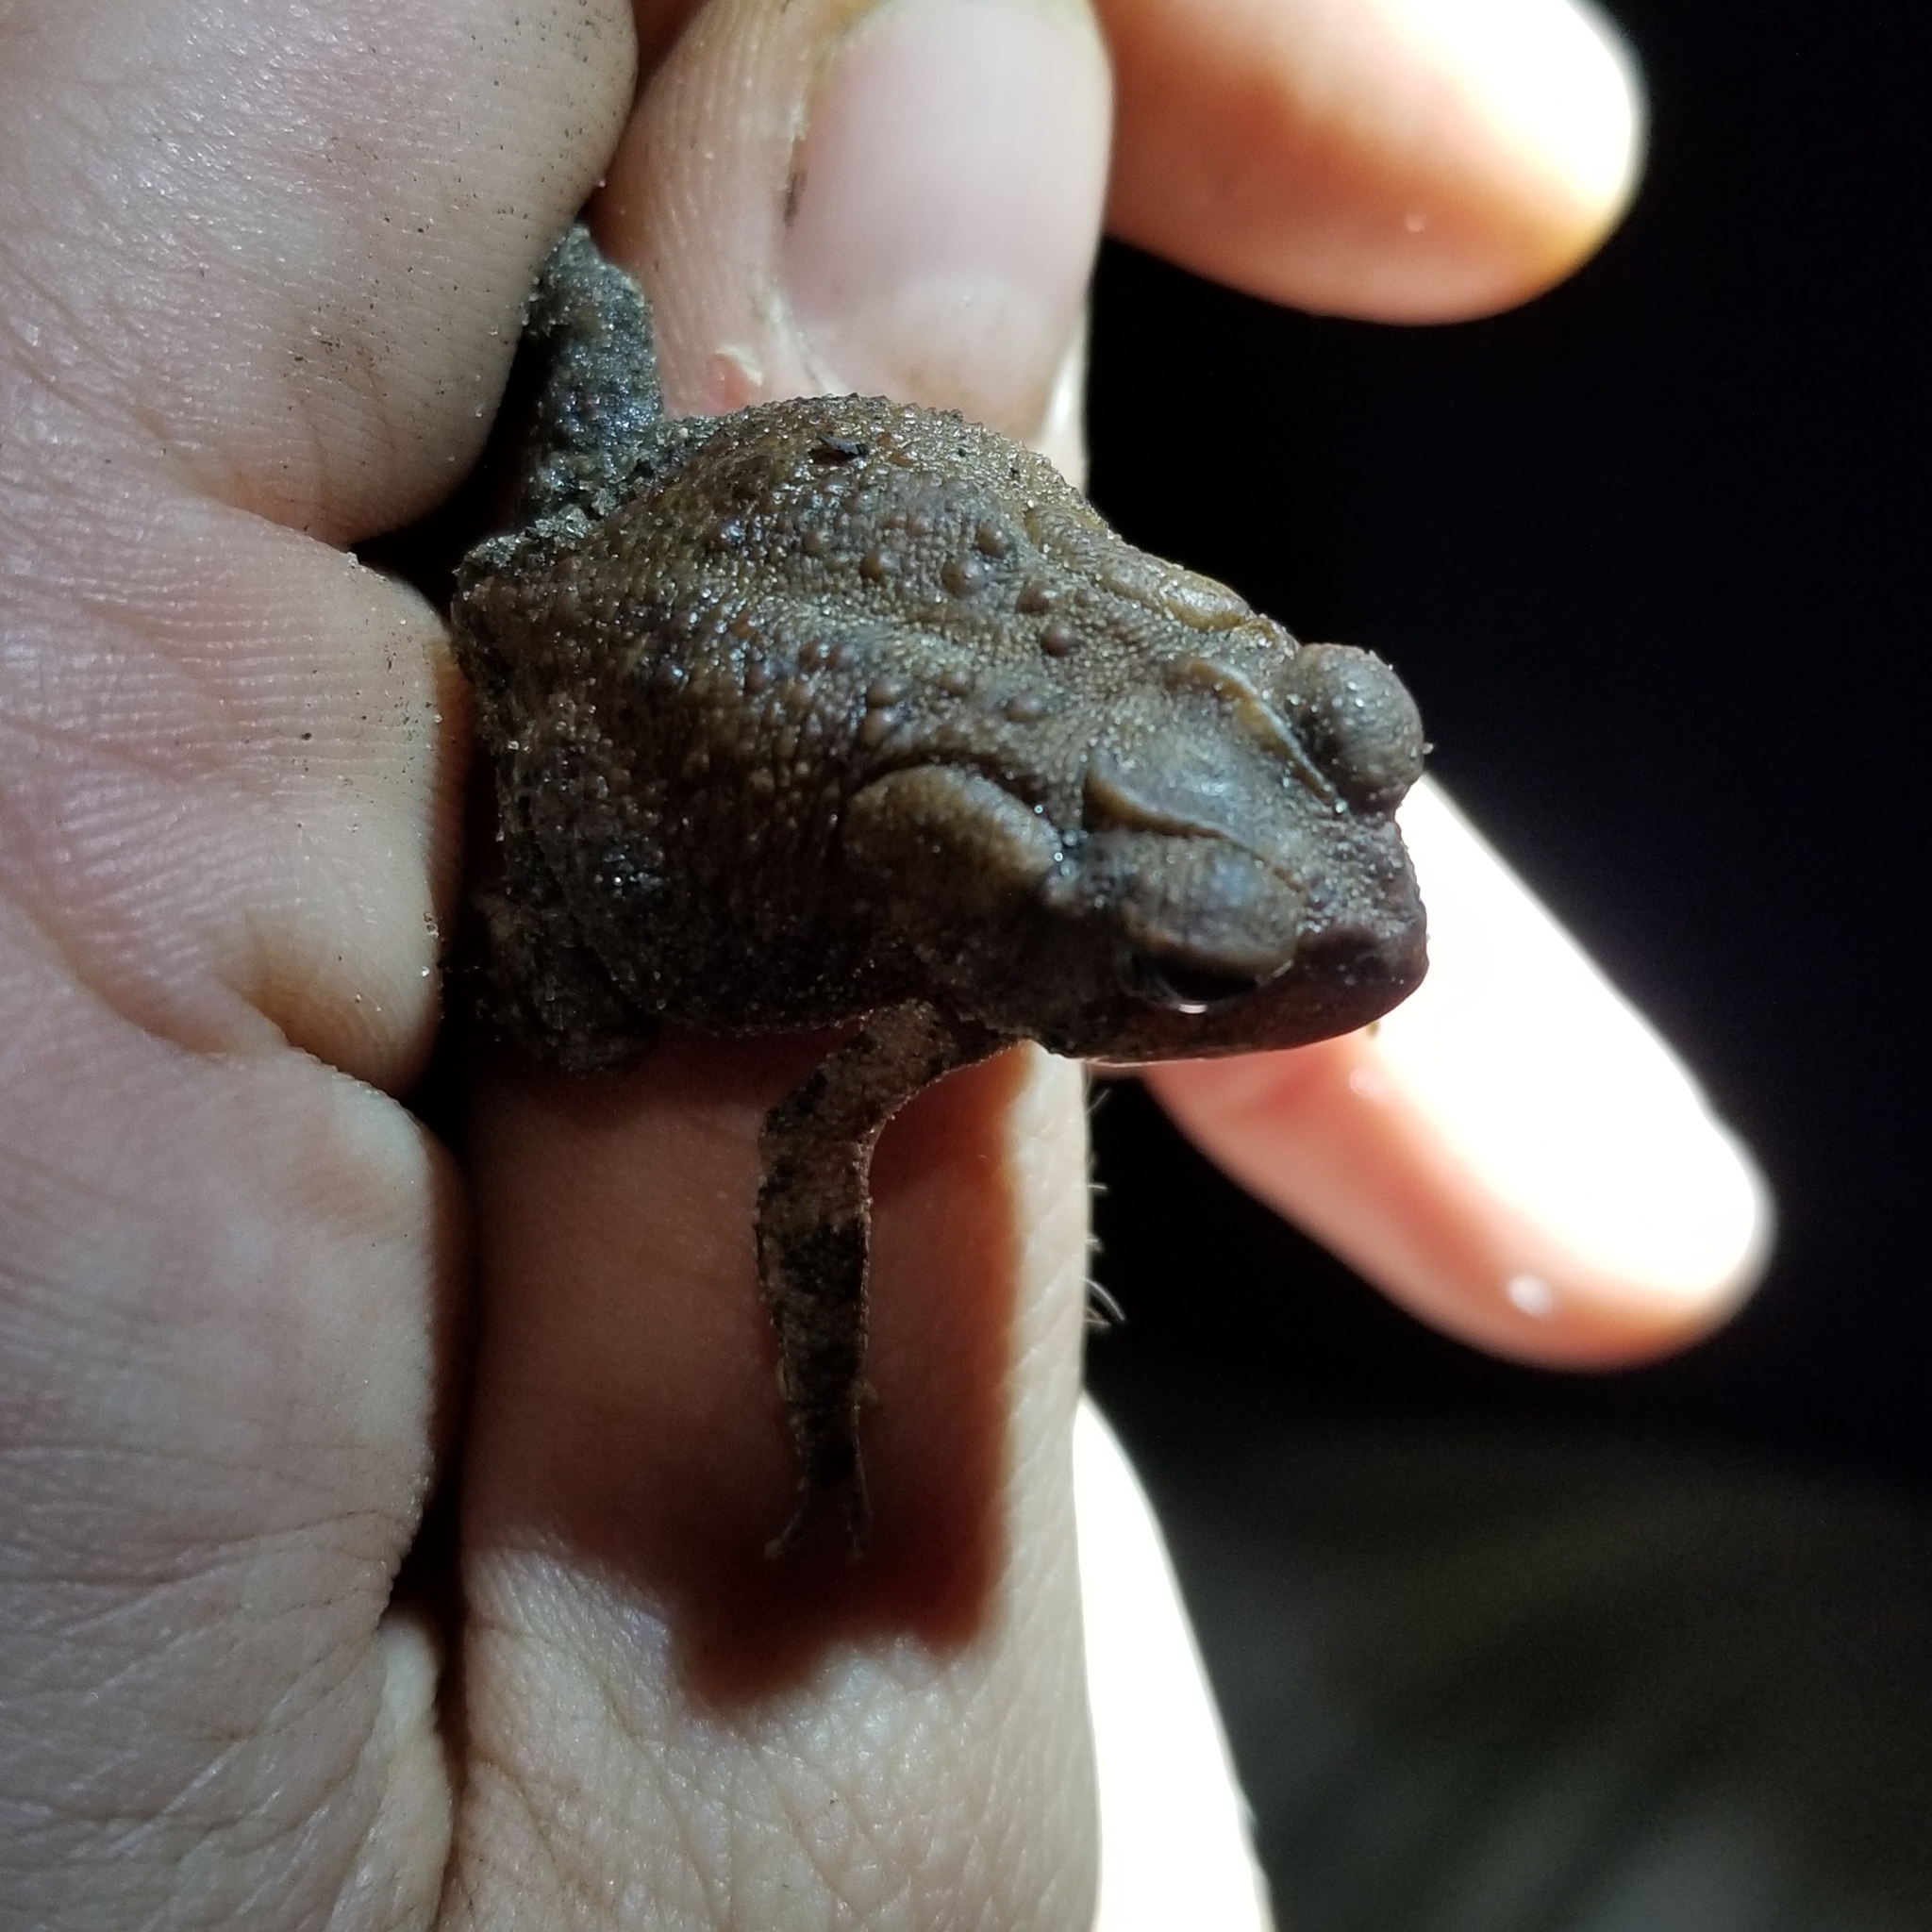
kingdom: Animalia
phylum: Chordata
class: Amphibia
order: Anura
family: Bufonidae
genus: Anaxyrus
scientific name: Anaxyrus terrestris
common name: Southern toad
